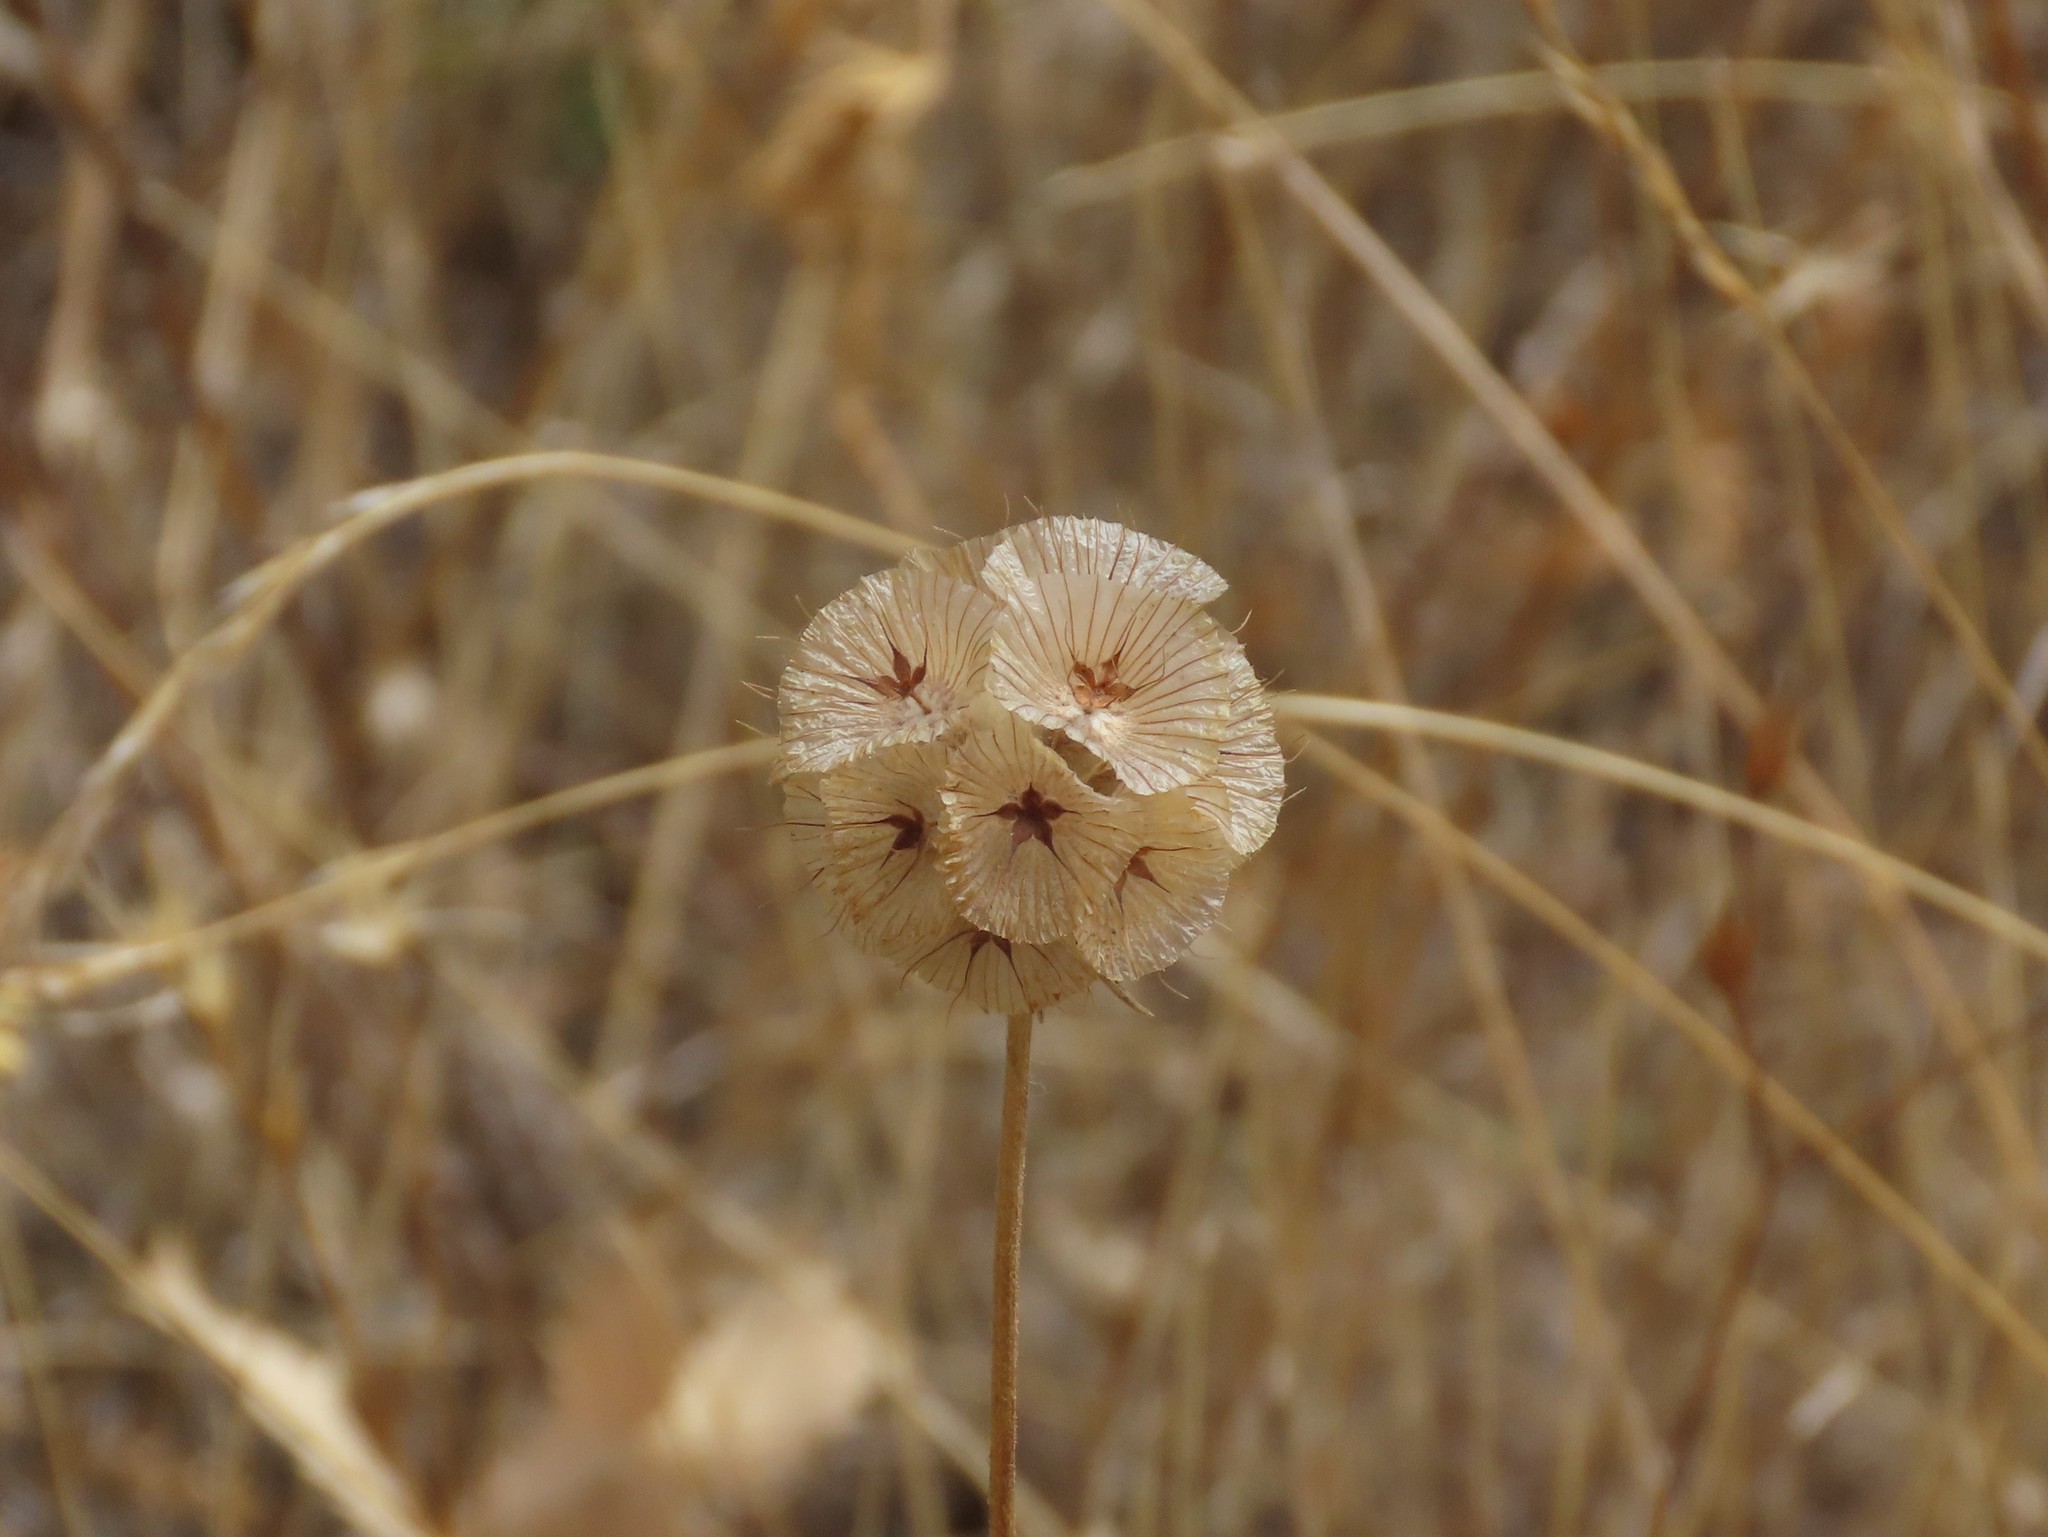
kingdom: Plantae
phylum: Tracheophyta
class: Magnoliopsida
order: Dipsacales
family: Caprifoliaceae
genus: Lomelosia
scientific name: Lomelosia simplex
